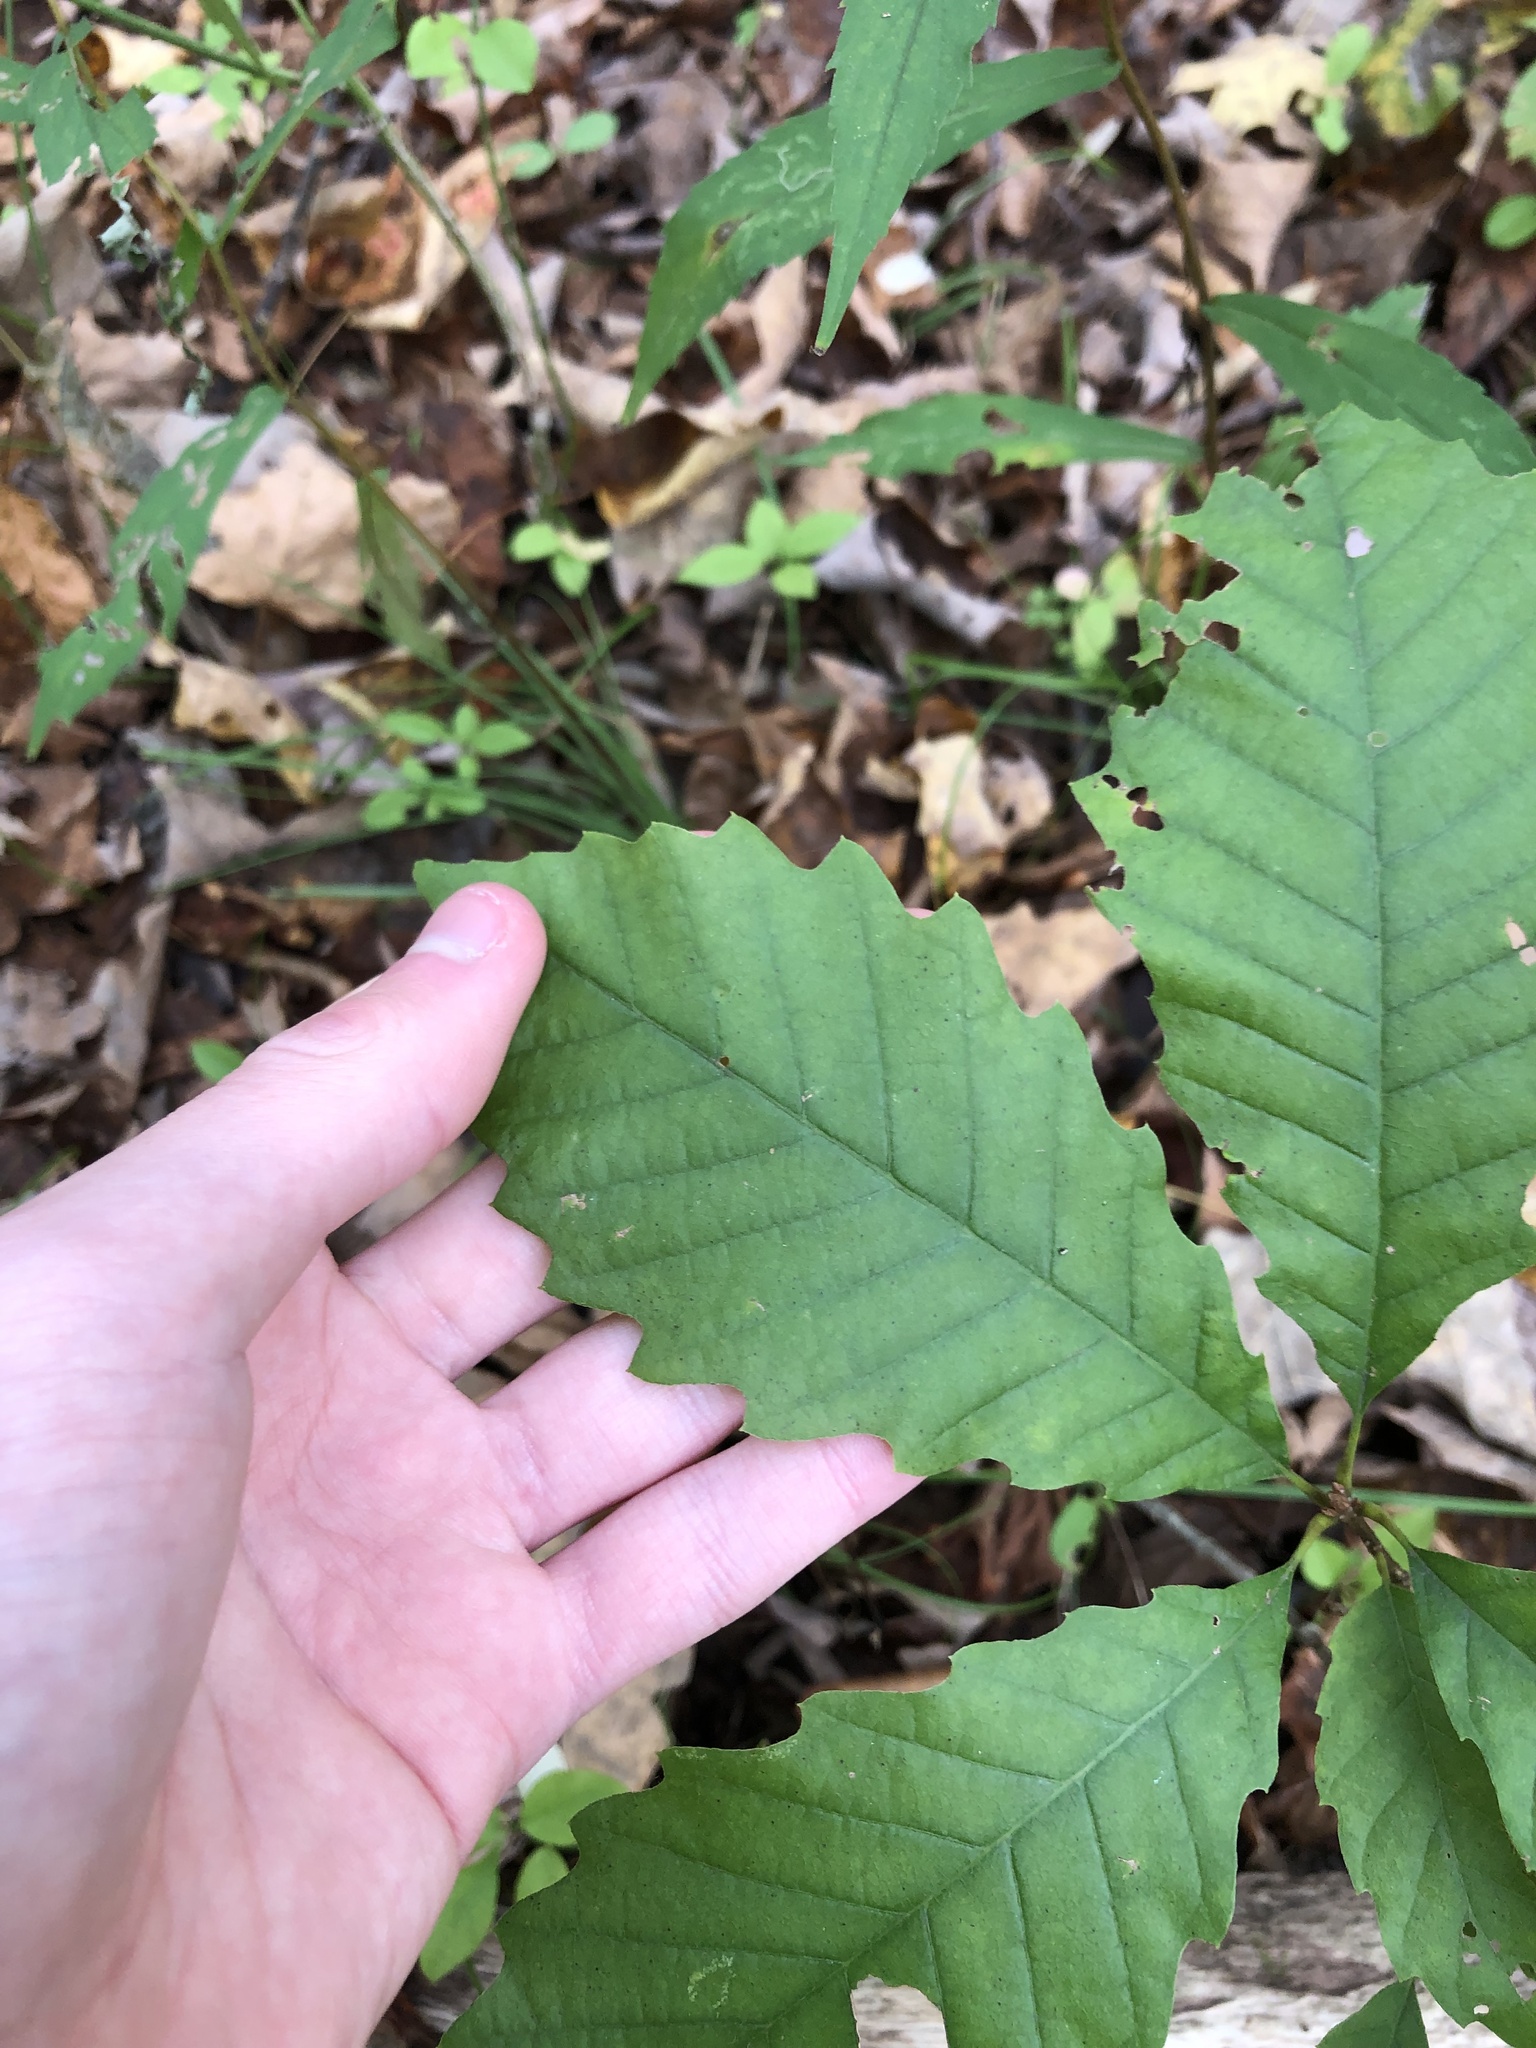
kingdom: Plantae
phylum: Tracheophyta
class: Magnoliopsida
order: Fagales
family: Fagaceae
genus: Quercus
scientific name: Quercus muehlenbergii
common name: Chinkapin oak
